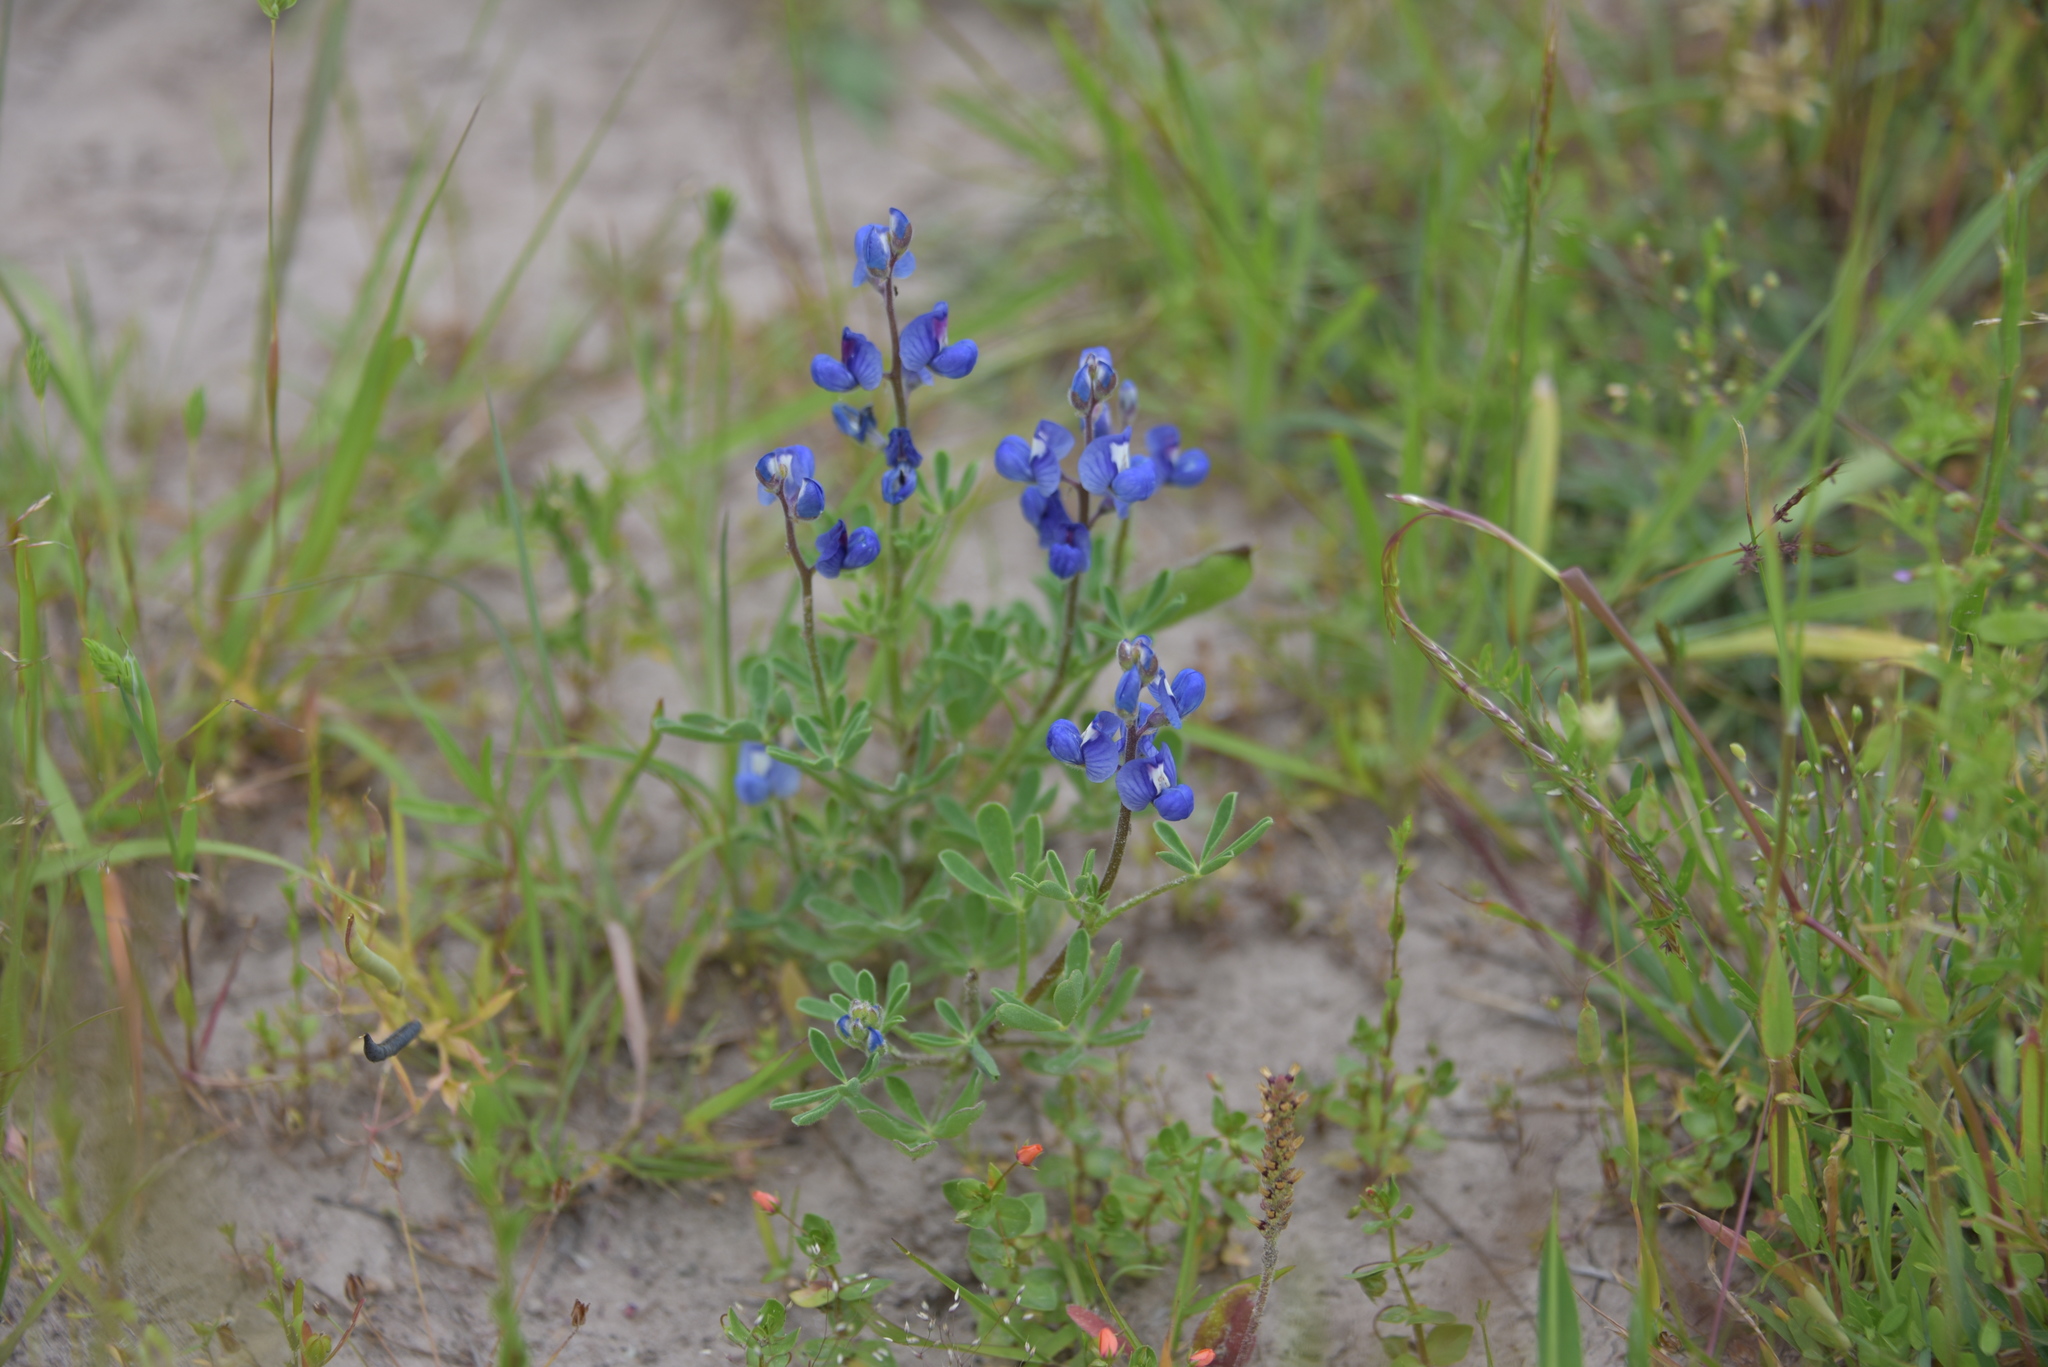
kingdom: Plantae
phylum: Tracheophyta
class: Magnoliopsida
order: Fabales
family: Fabaceae
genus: Lupinus
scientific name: Lupinus subcarnosus
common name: Texas bluebonnet
